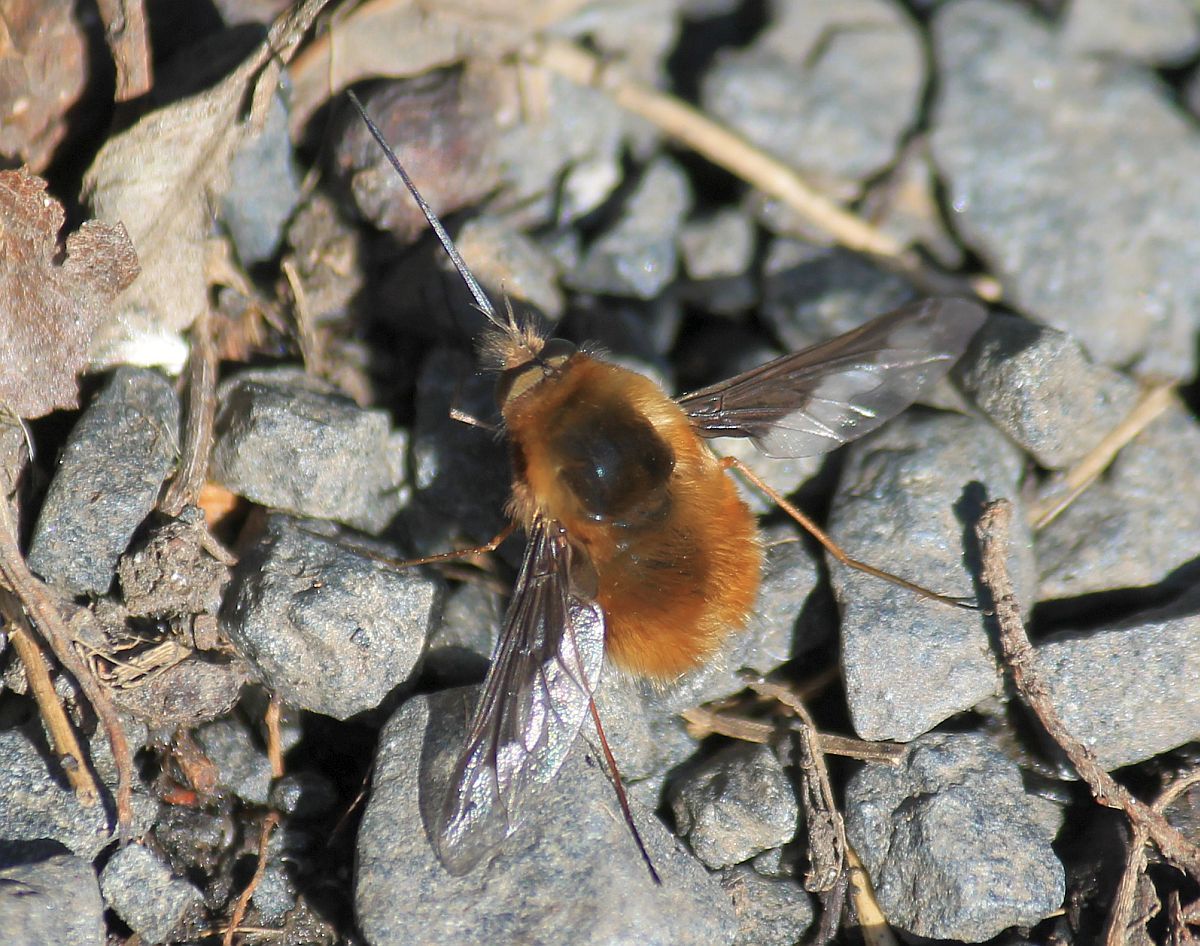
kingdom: Animalia
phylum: Arthropoda
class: Insecta
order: Diptera
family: Bombyliidae
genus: Bombylius
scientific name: Bombylius major
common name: Bee fly
